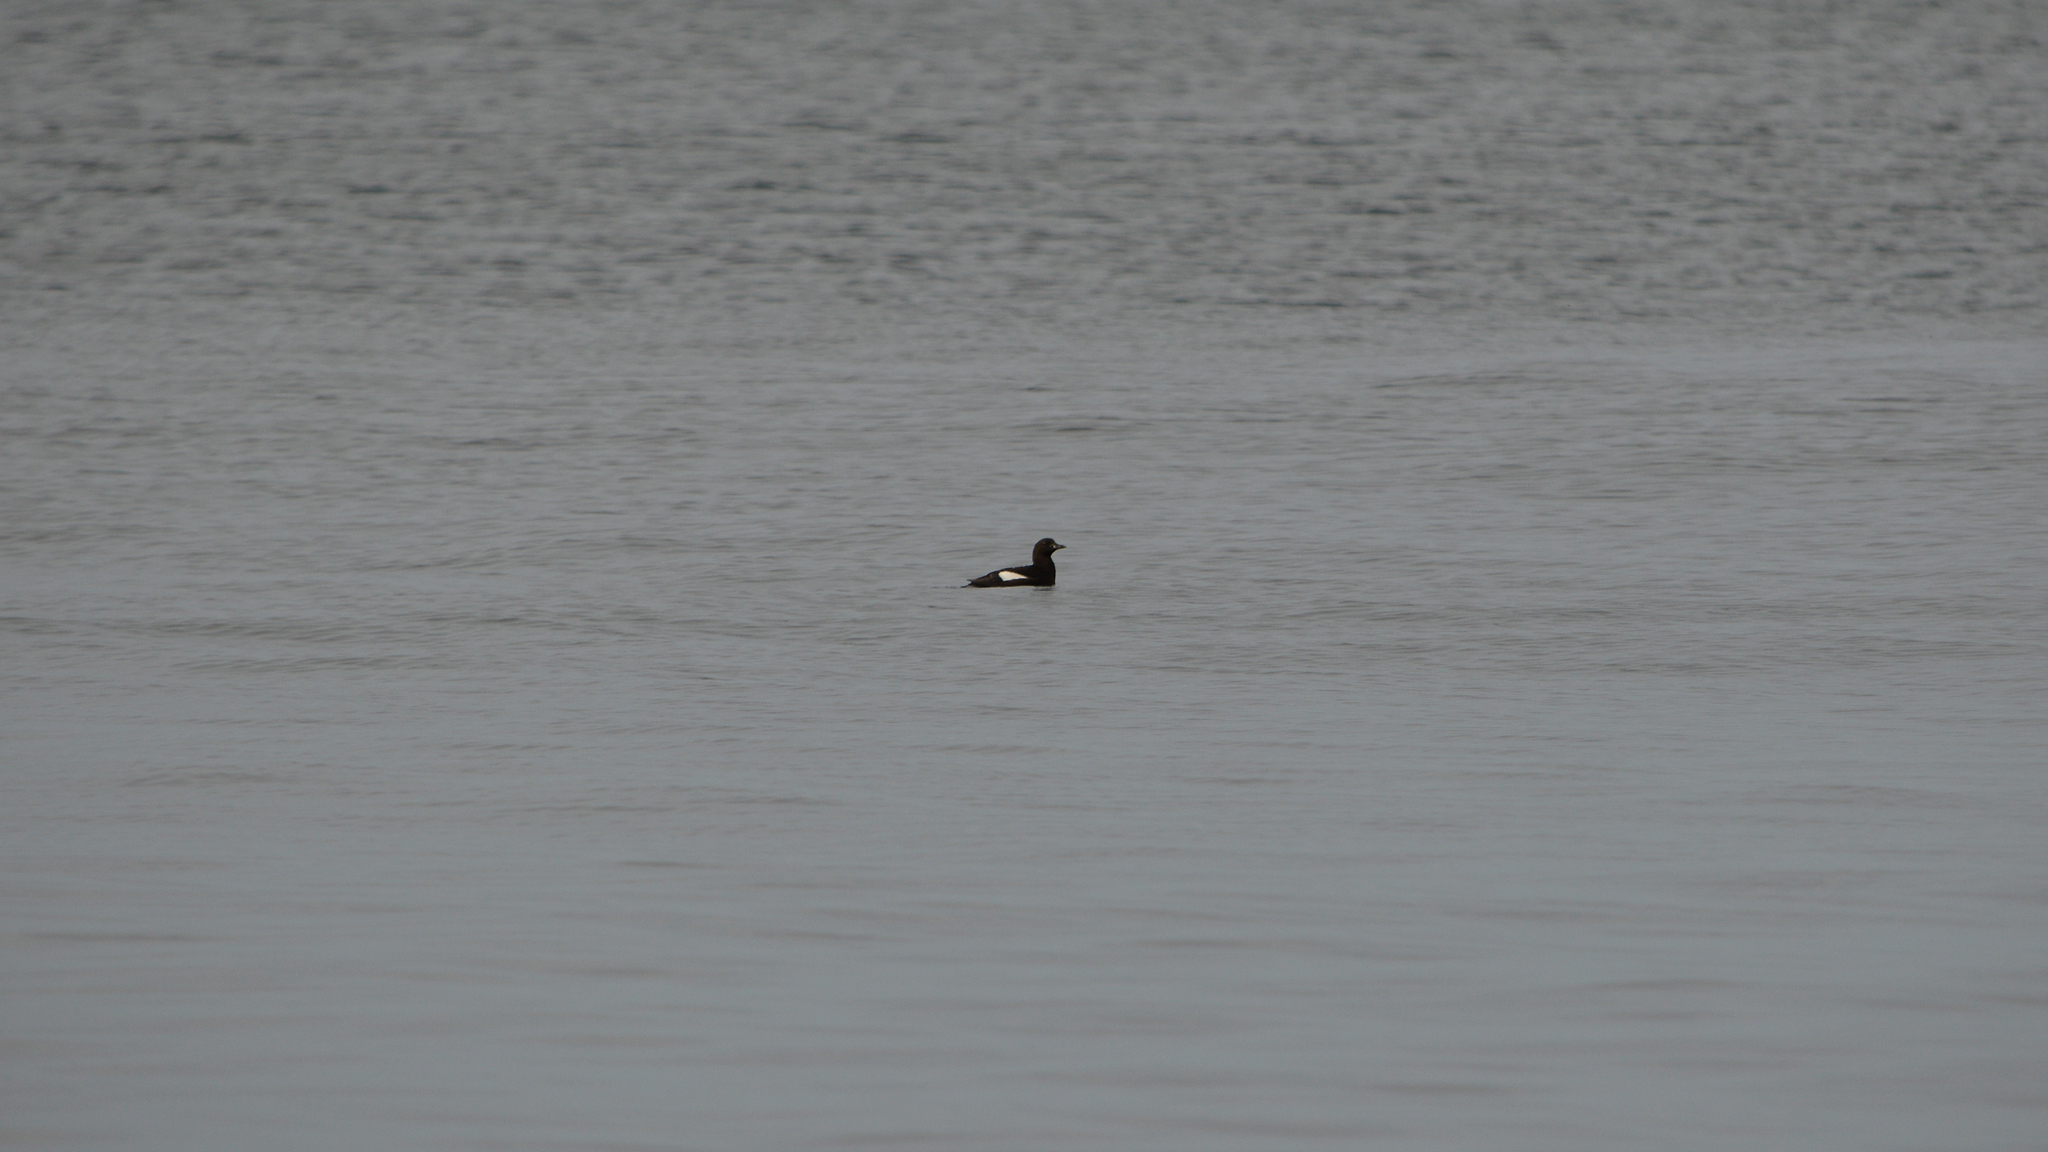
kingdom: Animalia
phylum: Chordata
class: Aves
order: Charadriiformes
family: Alcidae
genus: Cepphus
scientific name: Cepphus grylle
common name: Black guillemot
